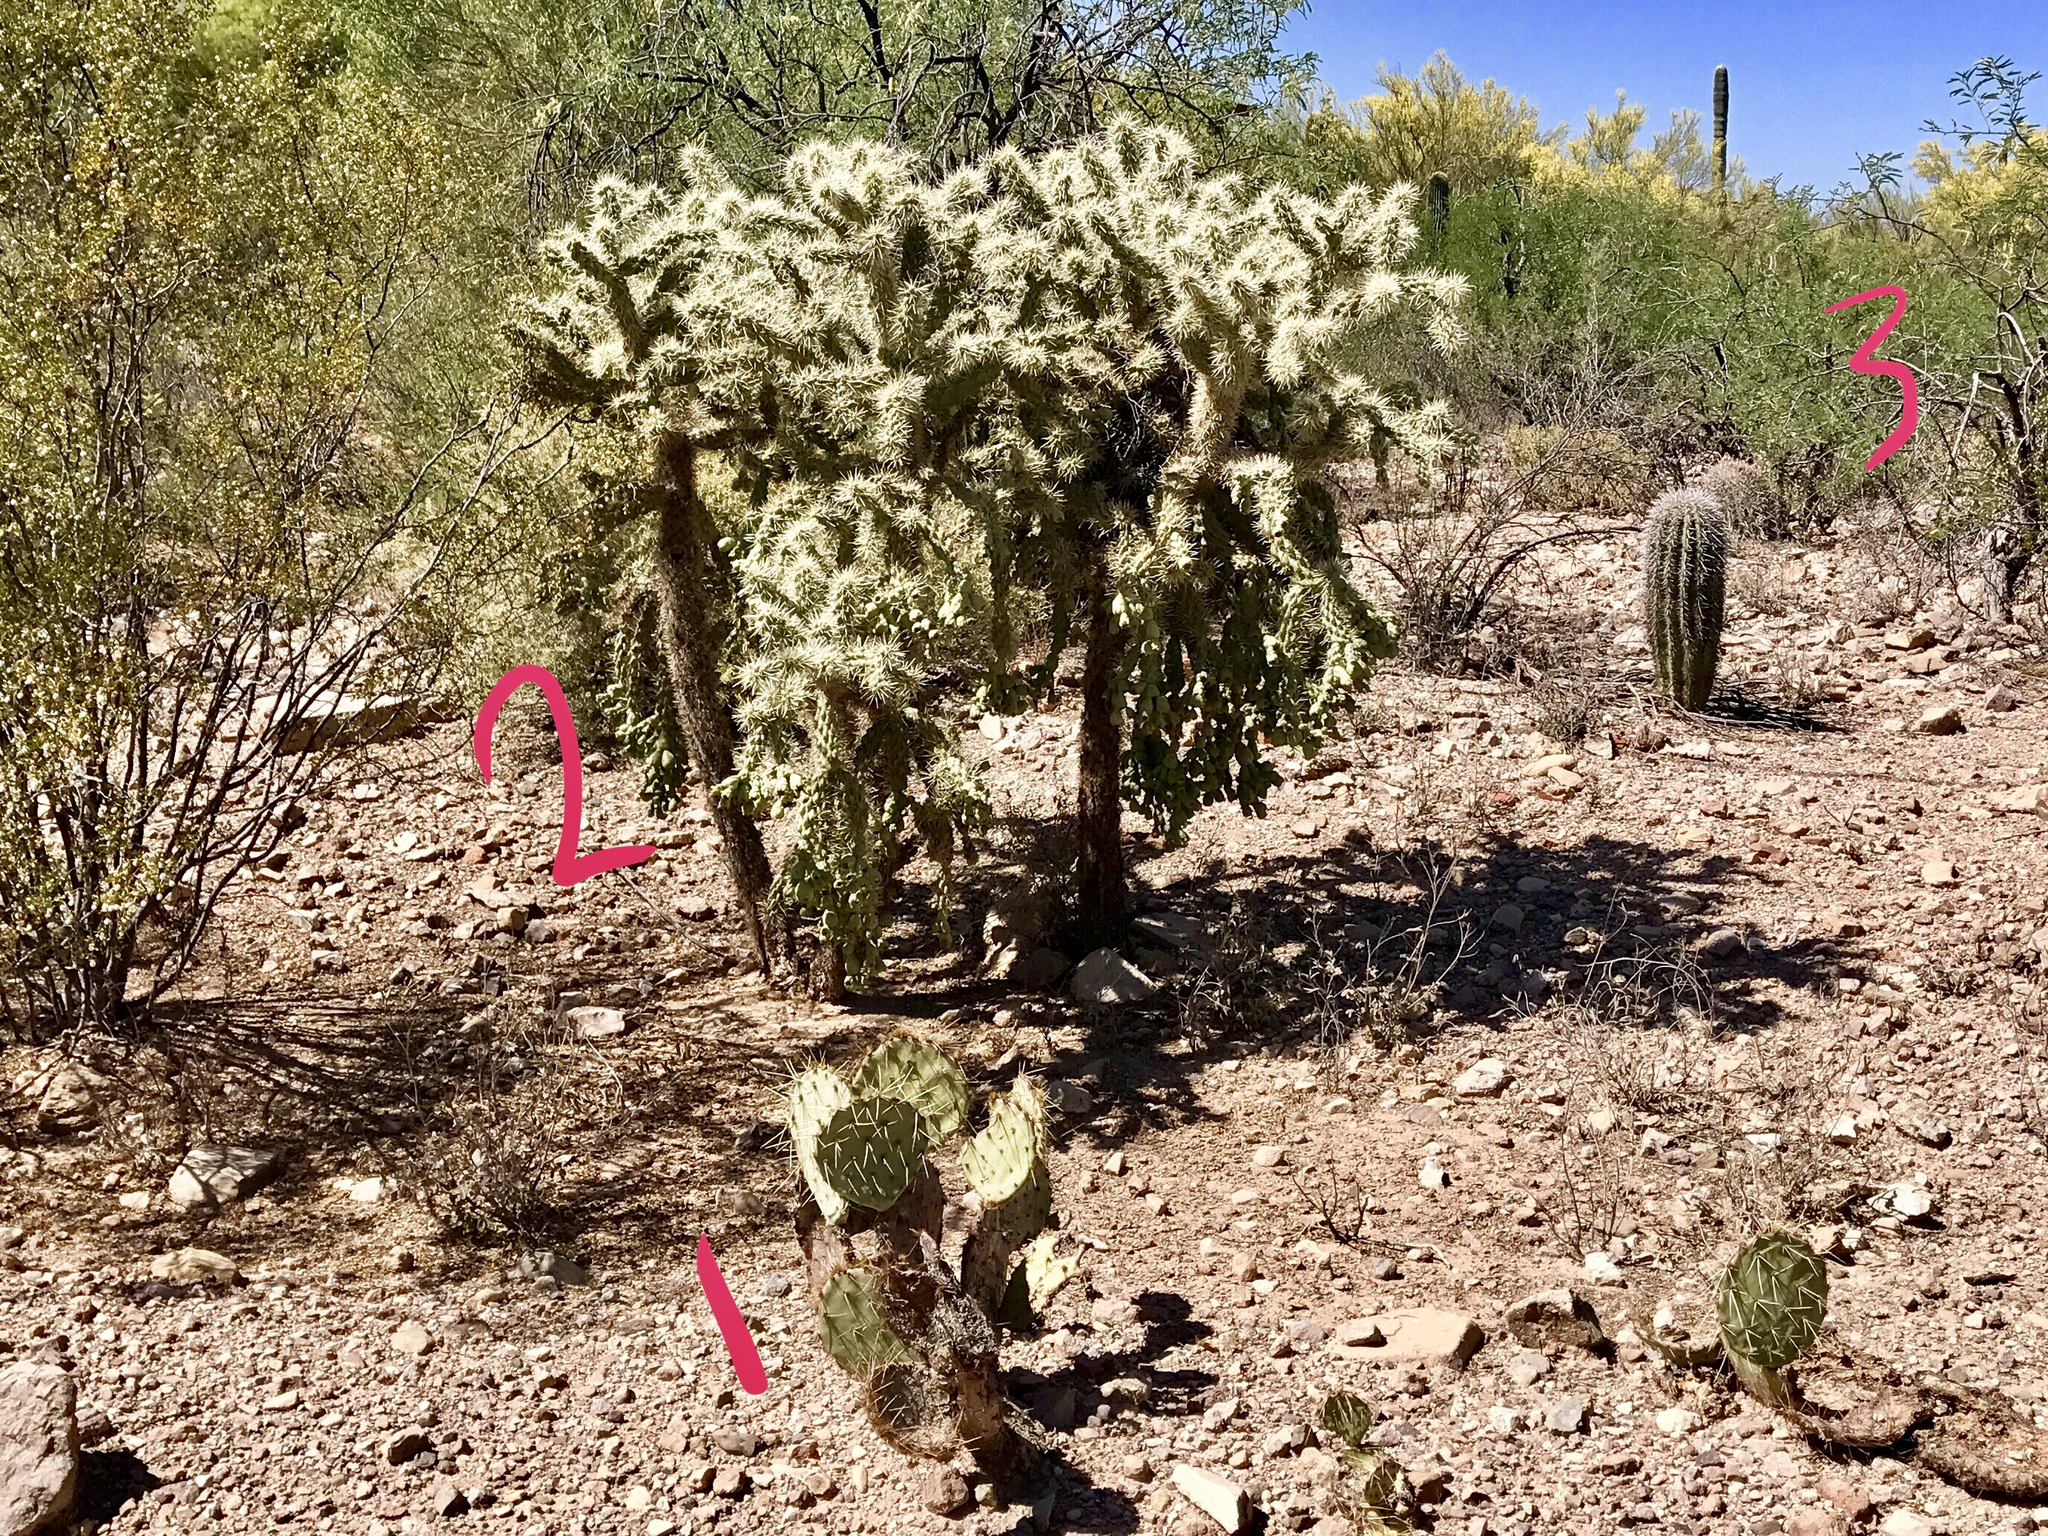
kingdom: Plantae
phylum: Tracheophyta
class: Magnoliopsida
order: Caryophyllales
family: Cactaceae
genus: Carnegiea
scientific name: Carnegiea gigantea
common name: Saguaro
